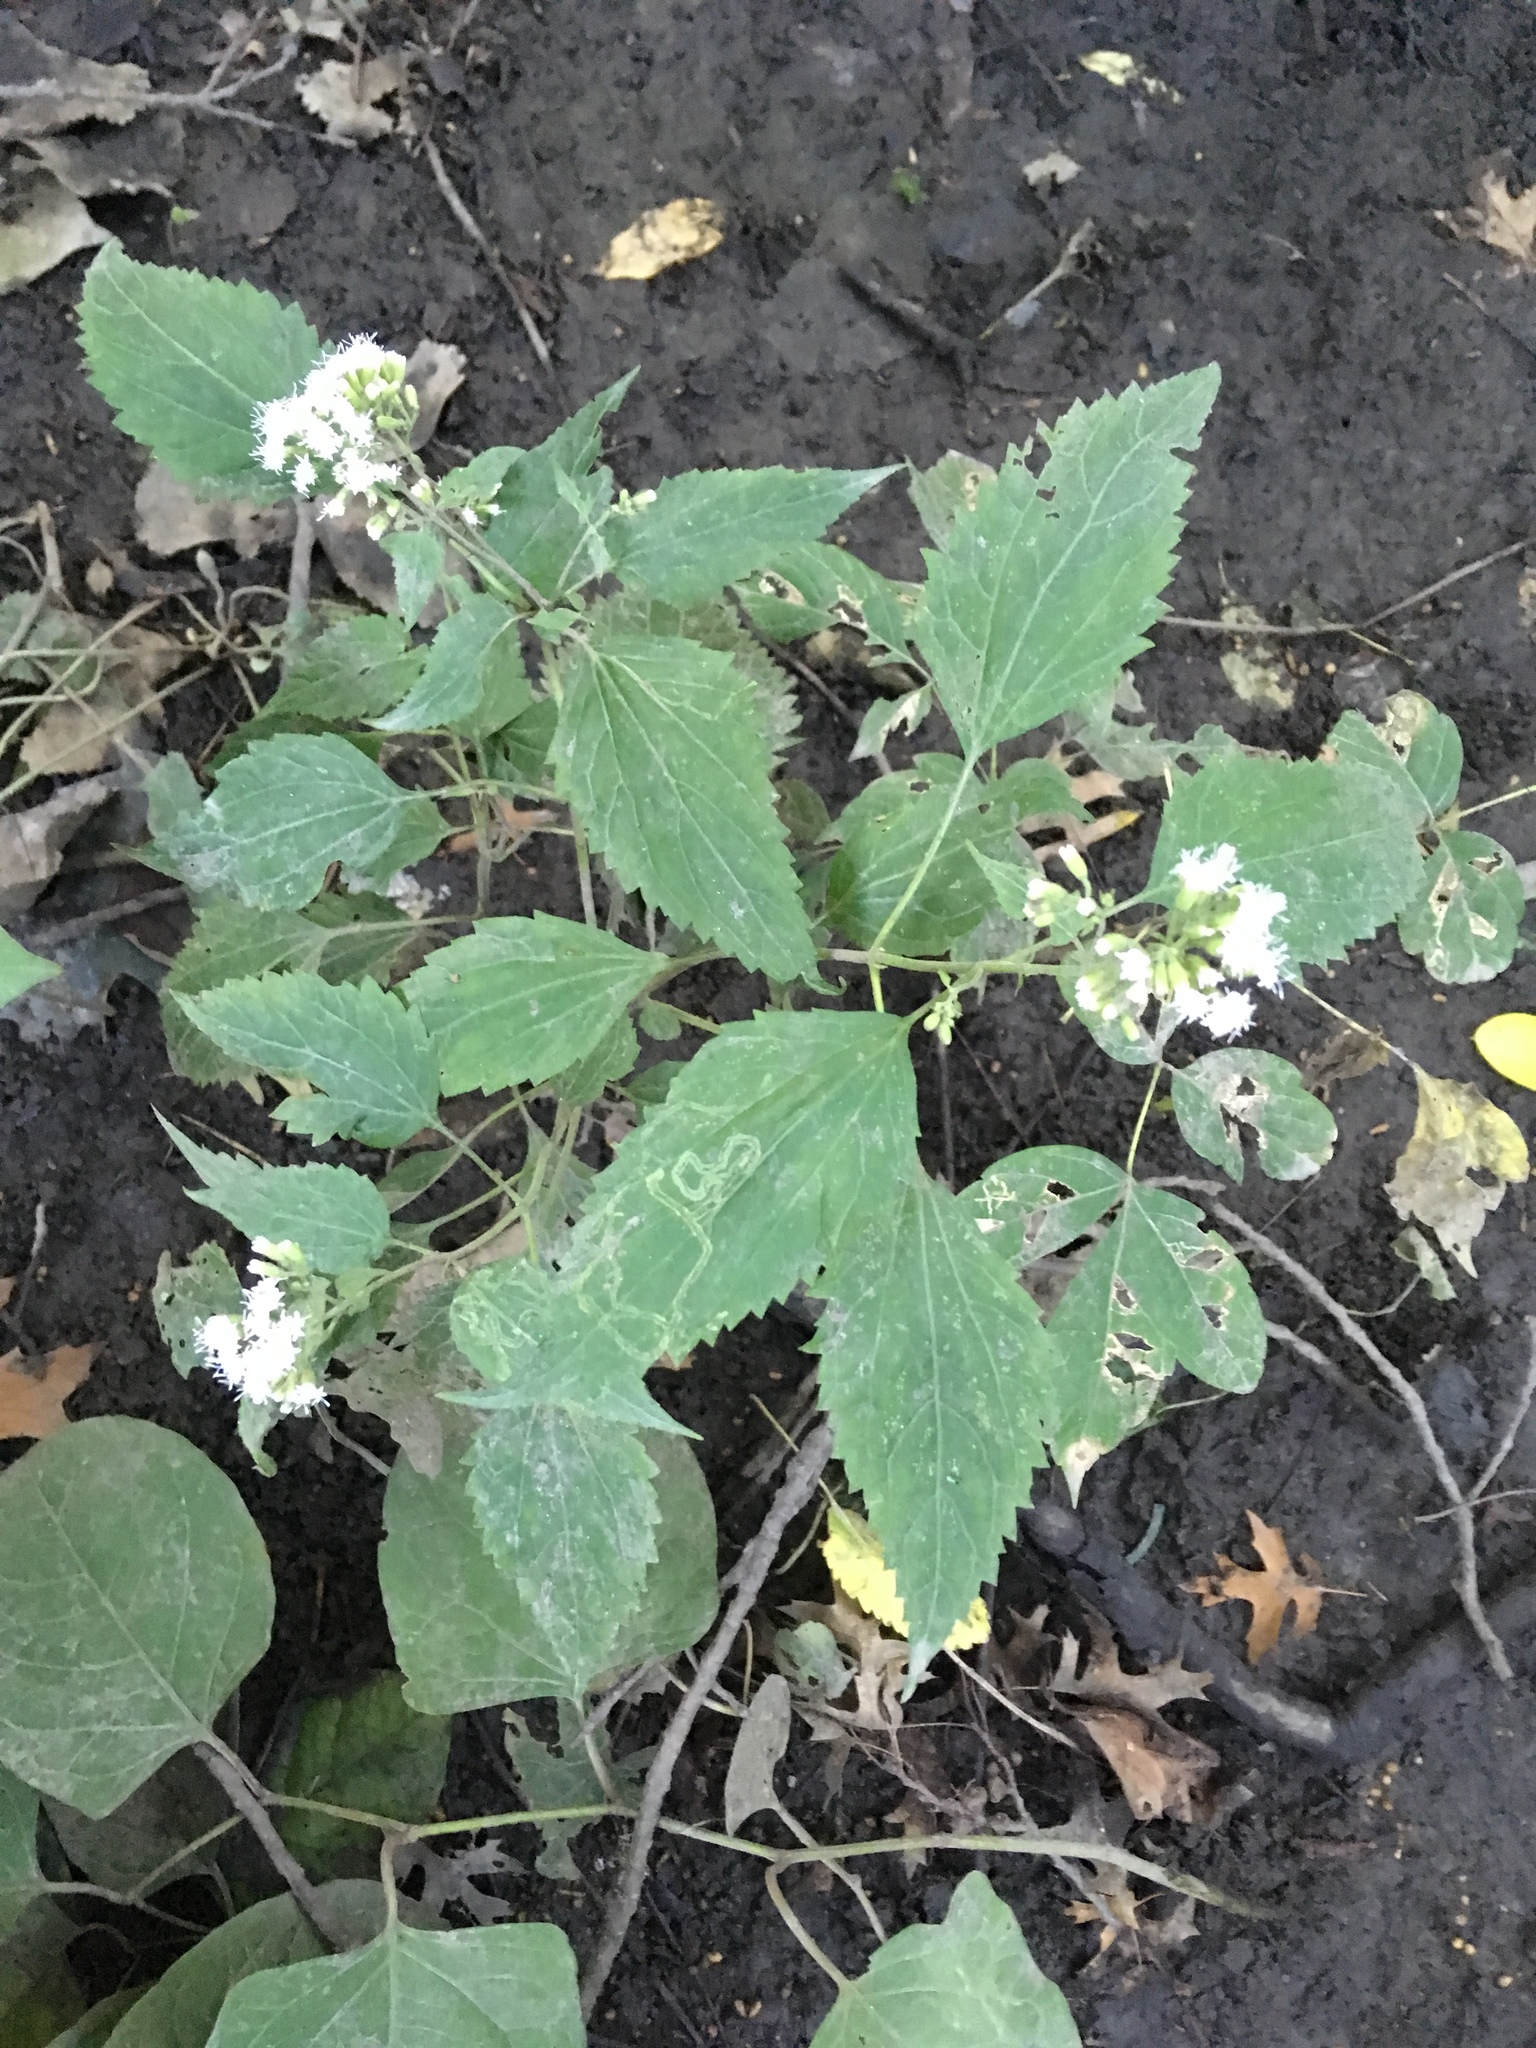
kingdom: Plantae
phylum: Tracheophyta
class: Magnoliopsida
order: Asterales
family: Asteraceae
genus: Ageratina
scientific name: Ageratina altissima
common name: White snakeroot
